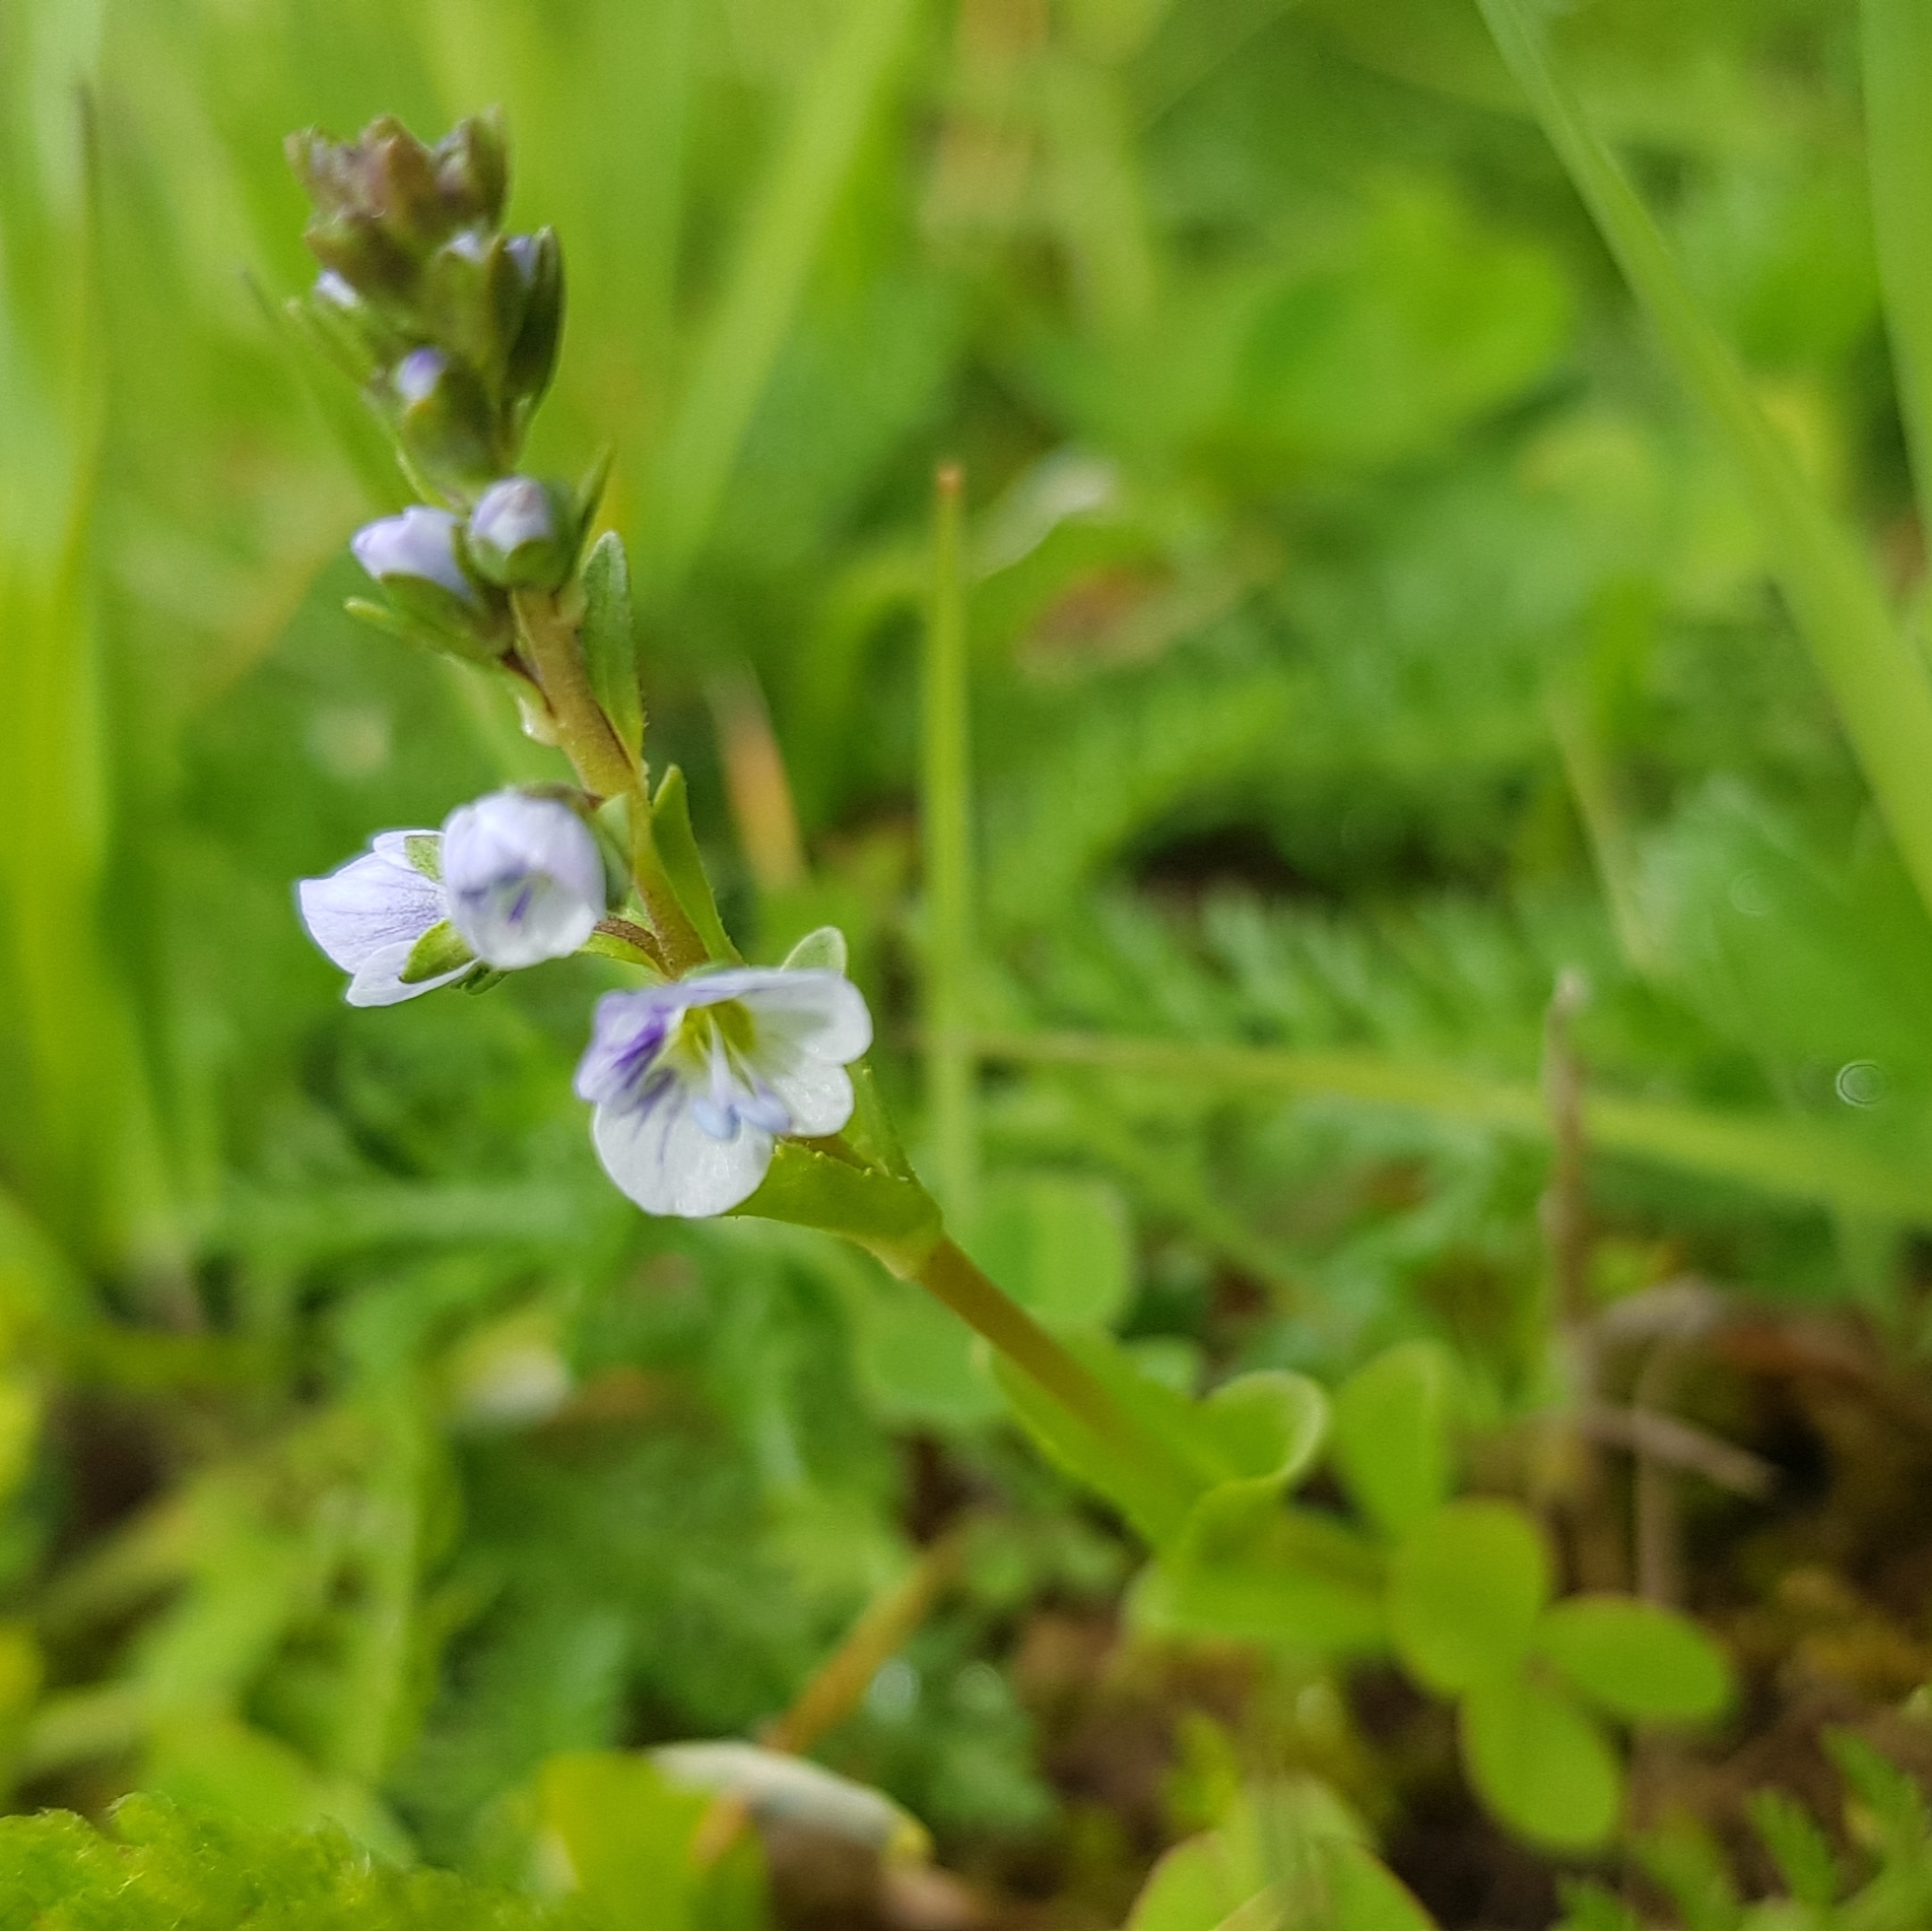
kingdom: Plantae
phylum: Tracheophyta
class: Magnoliopsida
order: Lamiales
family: Plantaginaceae
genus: Veronica
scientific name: Veronica serpyllifolia
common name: Thyme-leaved speedwell
